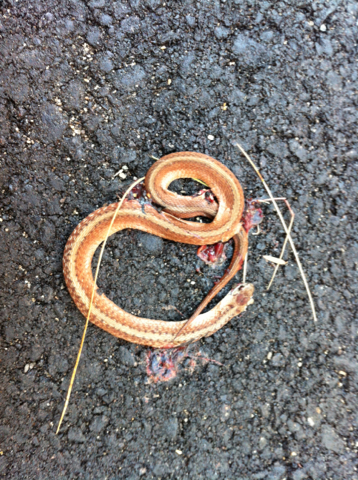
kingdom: Animalia
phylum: Chordata
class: Squamata
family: Colubridae
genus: Storeria
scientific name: Storeria dekayi
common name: (dekay’s) brown snake
